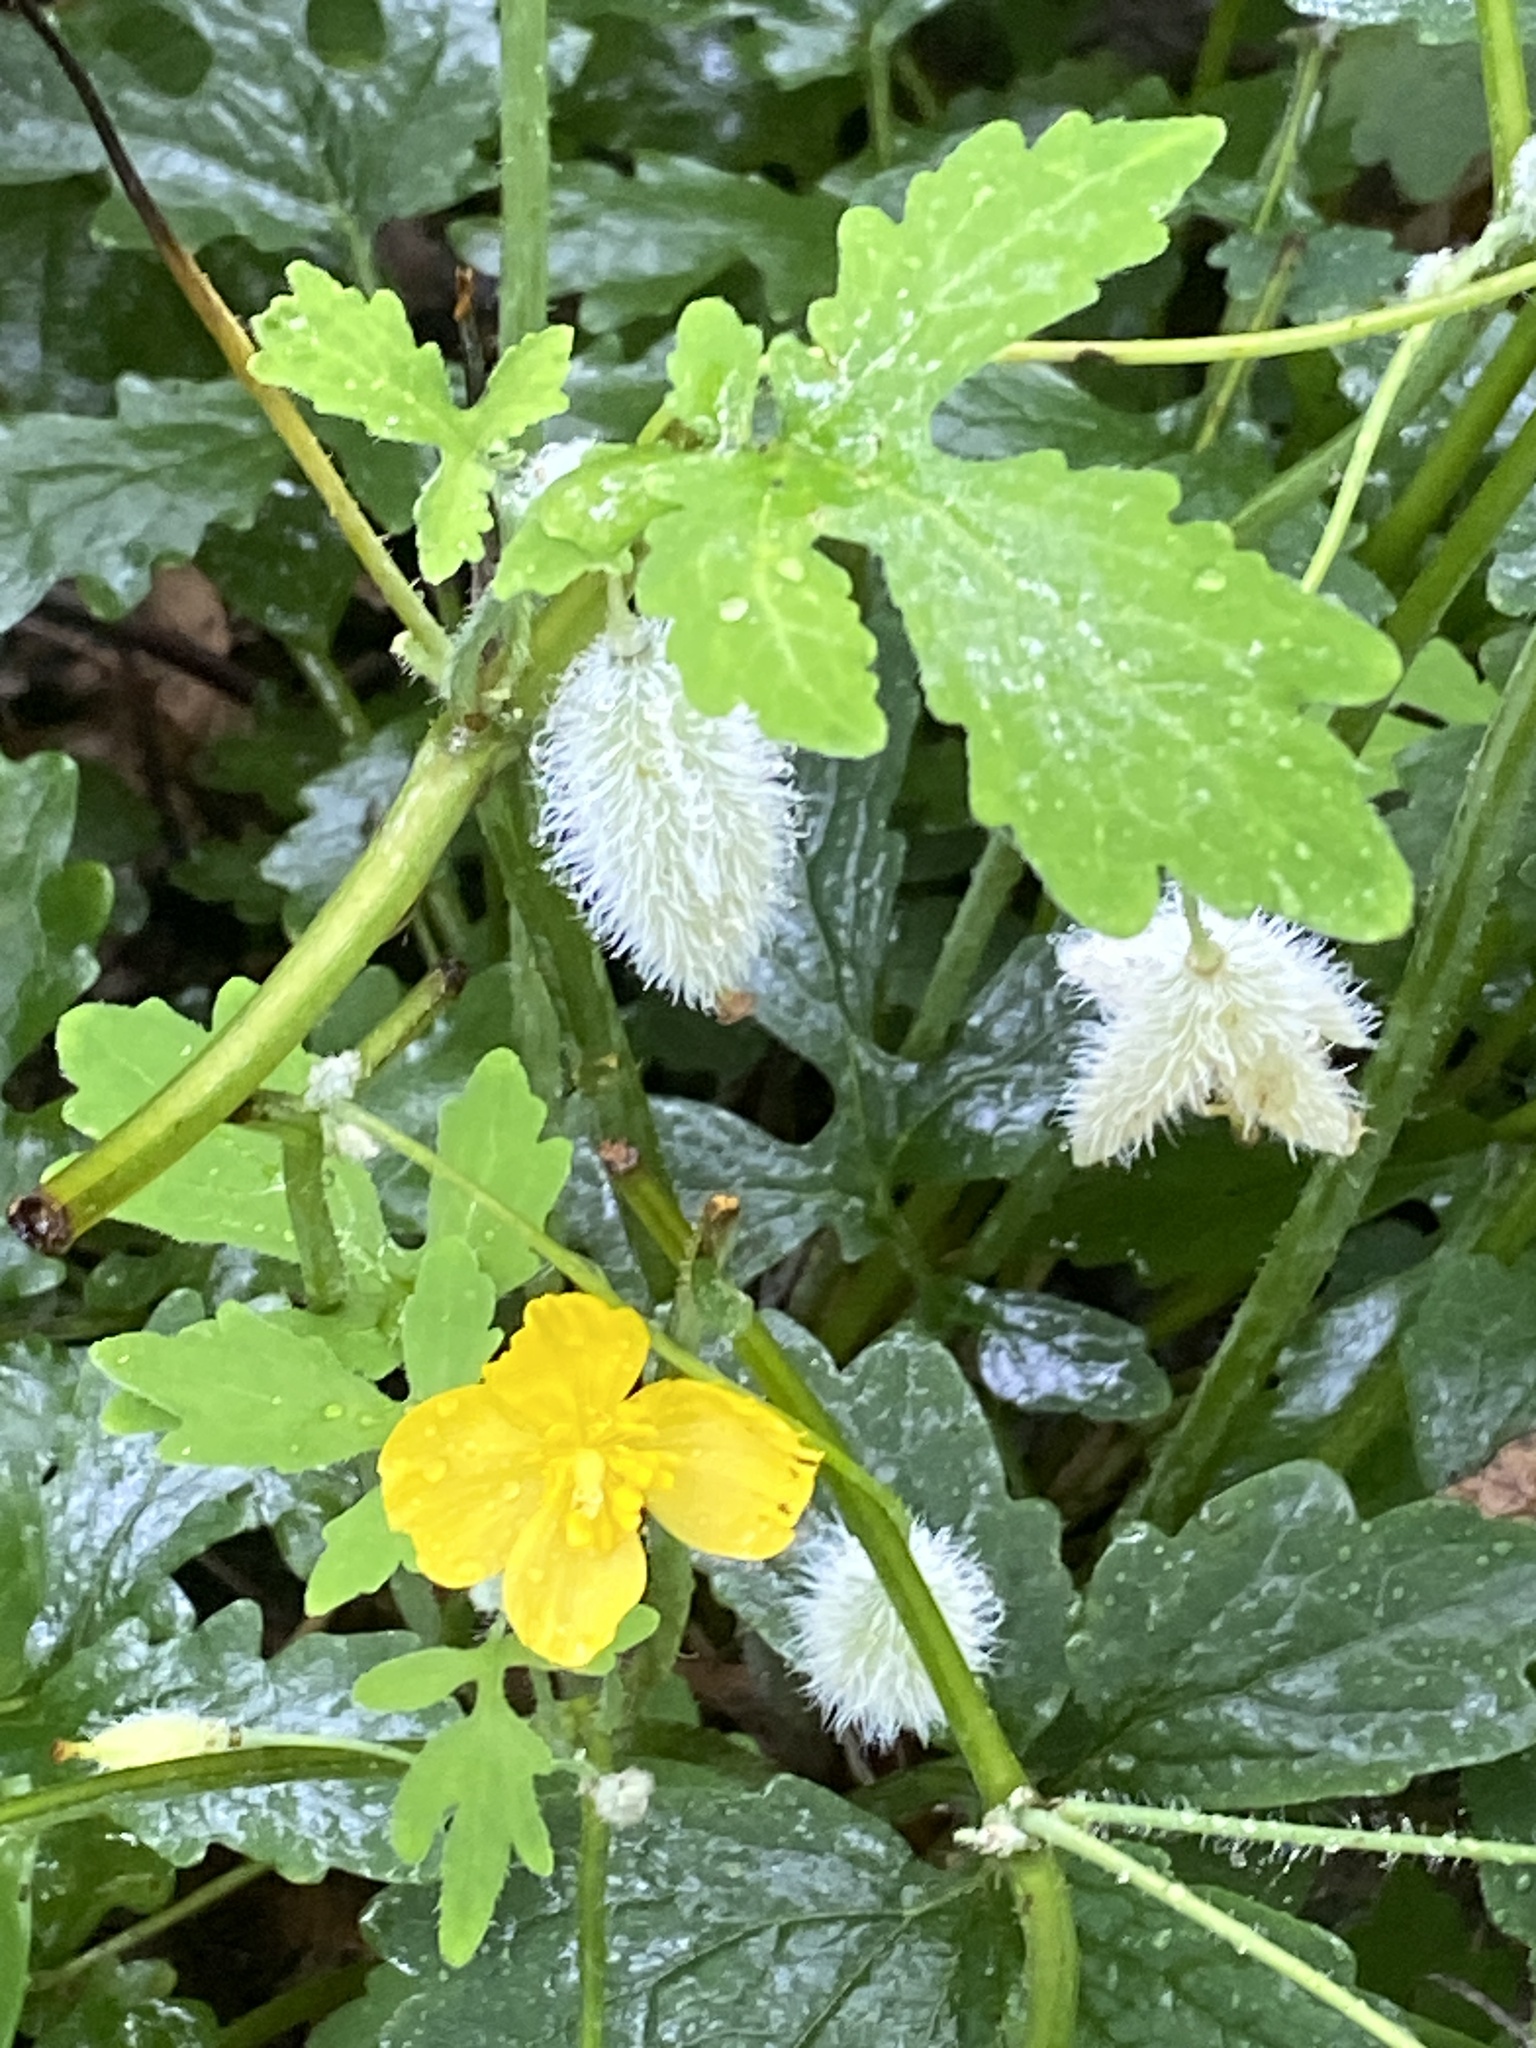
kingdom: Plantae
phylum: Tracheophyta
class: Magnoliopsida
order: Ranunculales
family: Papaveraceae
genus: Stylophorum
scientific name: Stylophorum diphyllum
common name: Celandine poppy
